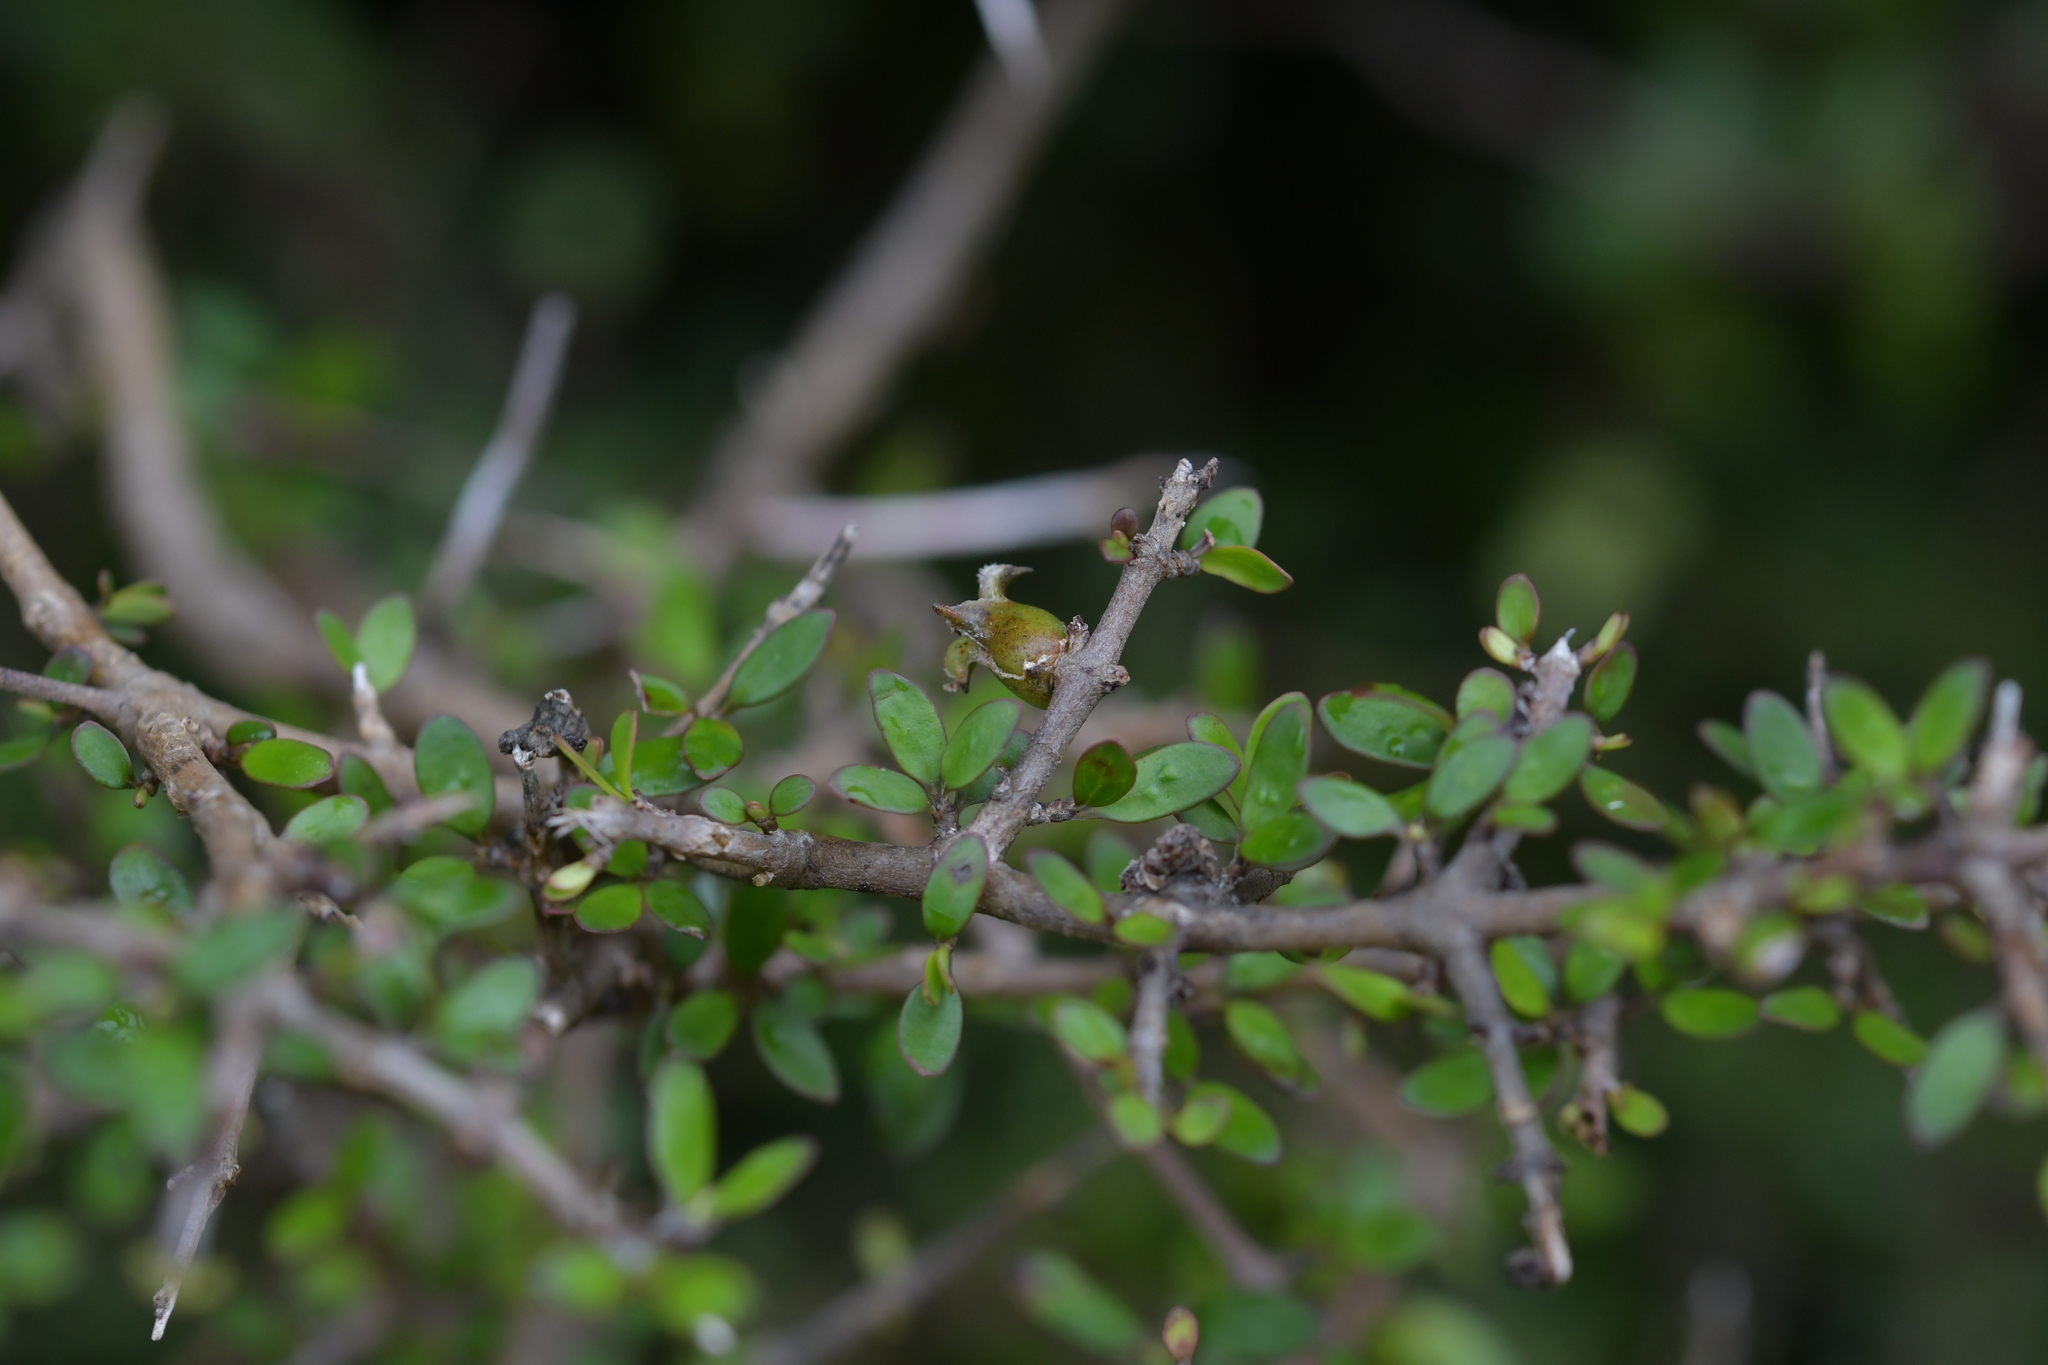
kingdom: Animalia
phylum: Arthropoda
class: Insecta
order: Diptera
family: Cecidomyiidae
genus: Oligotrophus
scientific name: Oligotrophus coprosmae
